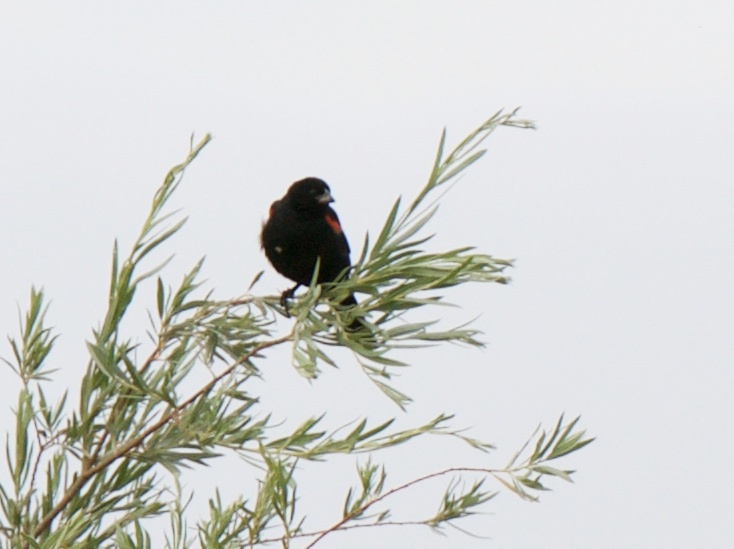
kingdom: Animalia
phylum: Chordata
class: Aves
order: Passeriformes
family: Icteridae
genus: Agelaius
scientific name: Agelaius phoeniceus
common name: Red-winged blackbird
